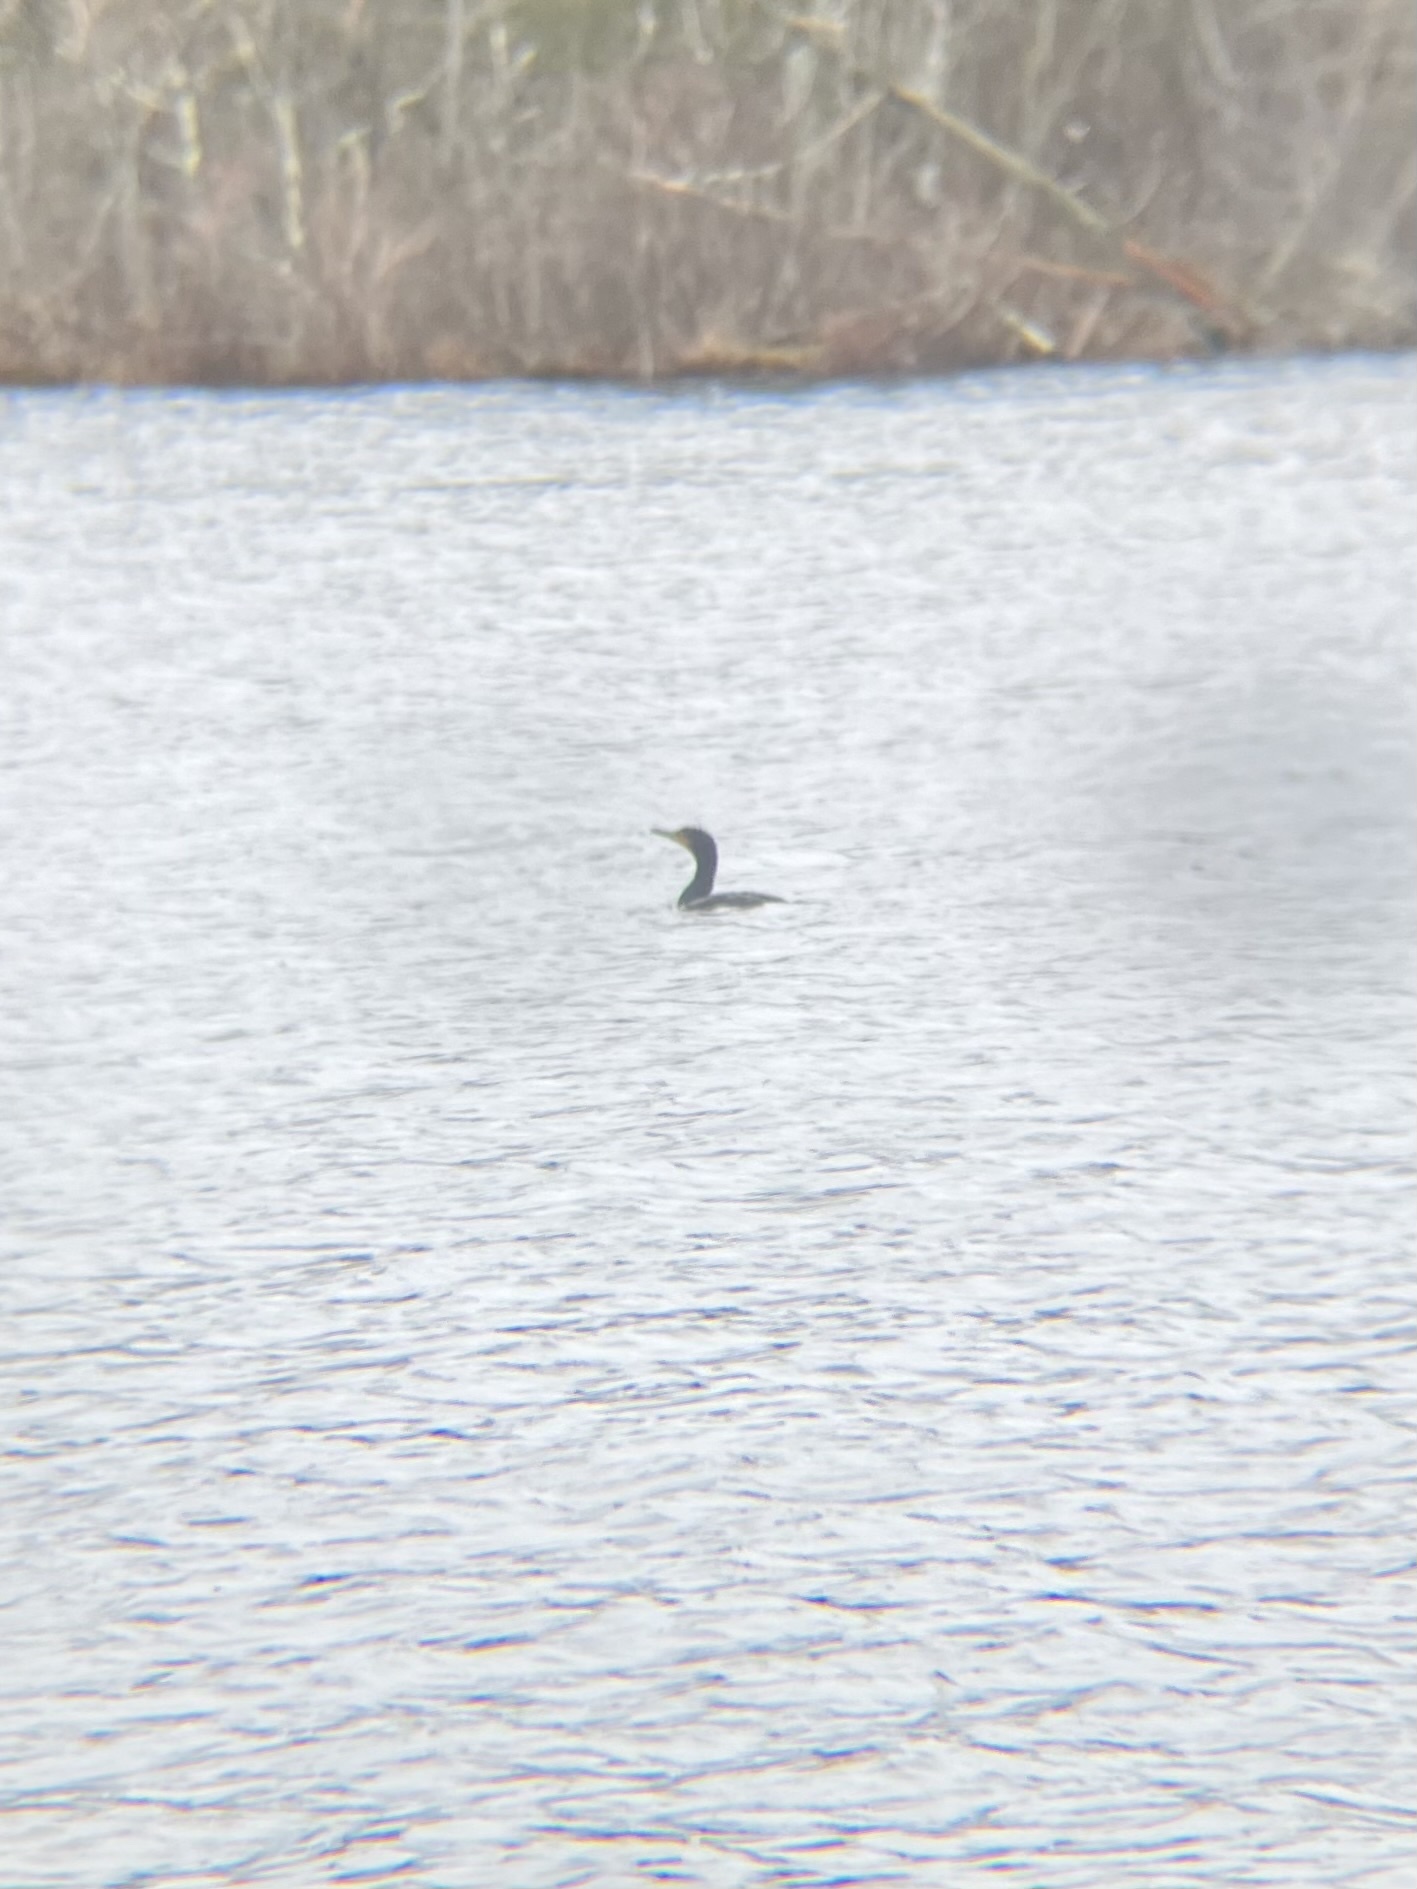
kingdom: Animalia
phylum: Chordata
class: Aves
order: Suliformes
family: Phalacrocoracidae
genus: Phalacrocorax
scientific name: Phalacrocorax auritus
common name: Double-crested cormorant
